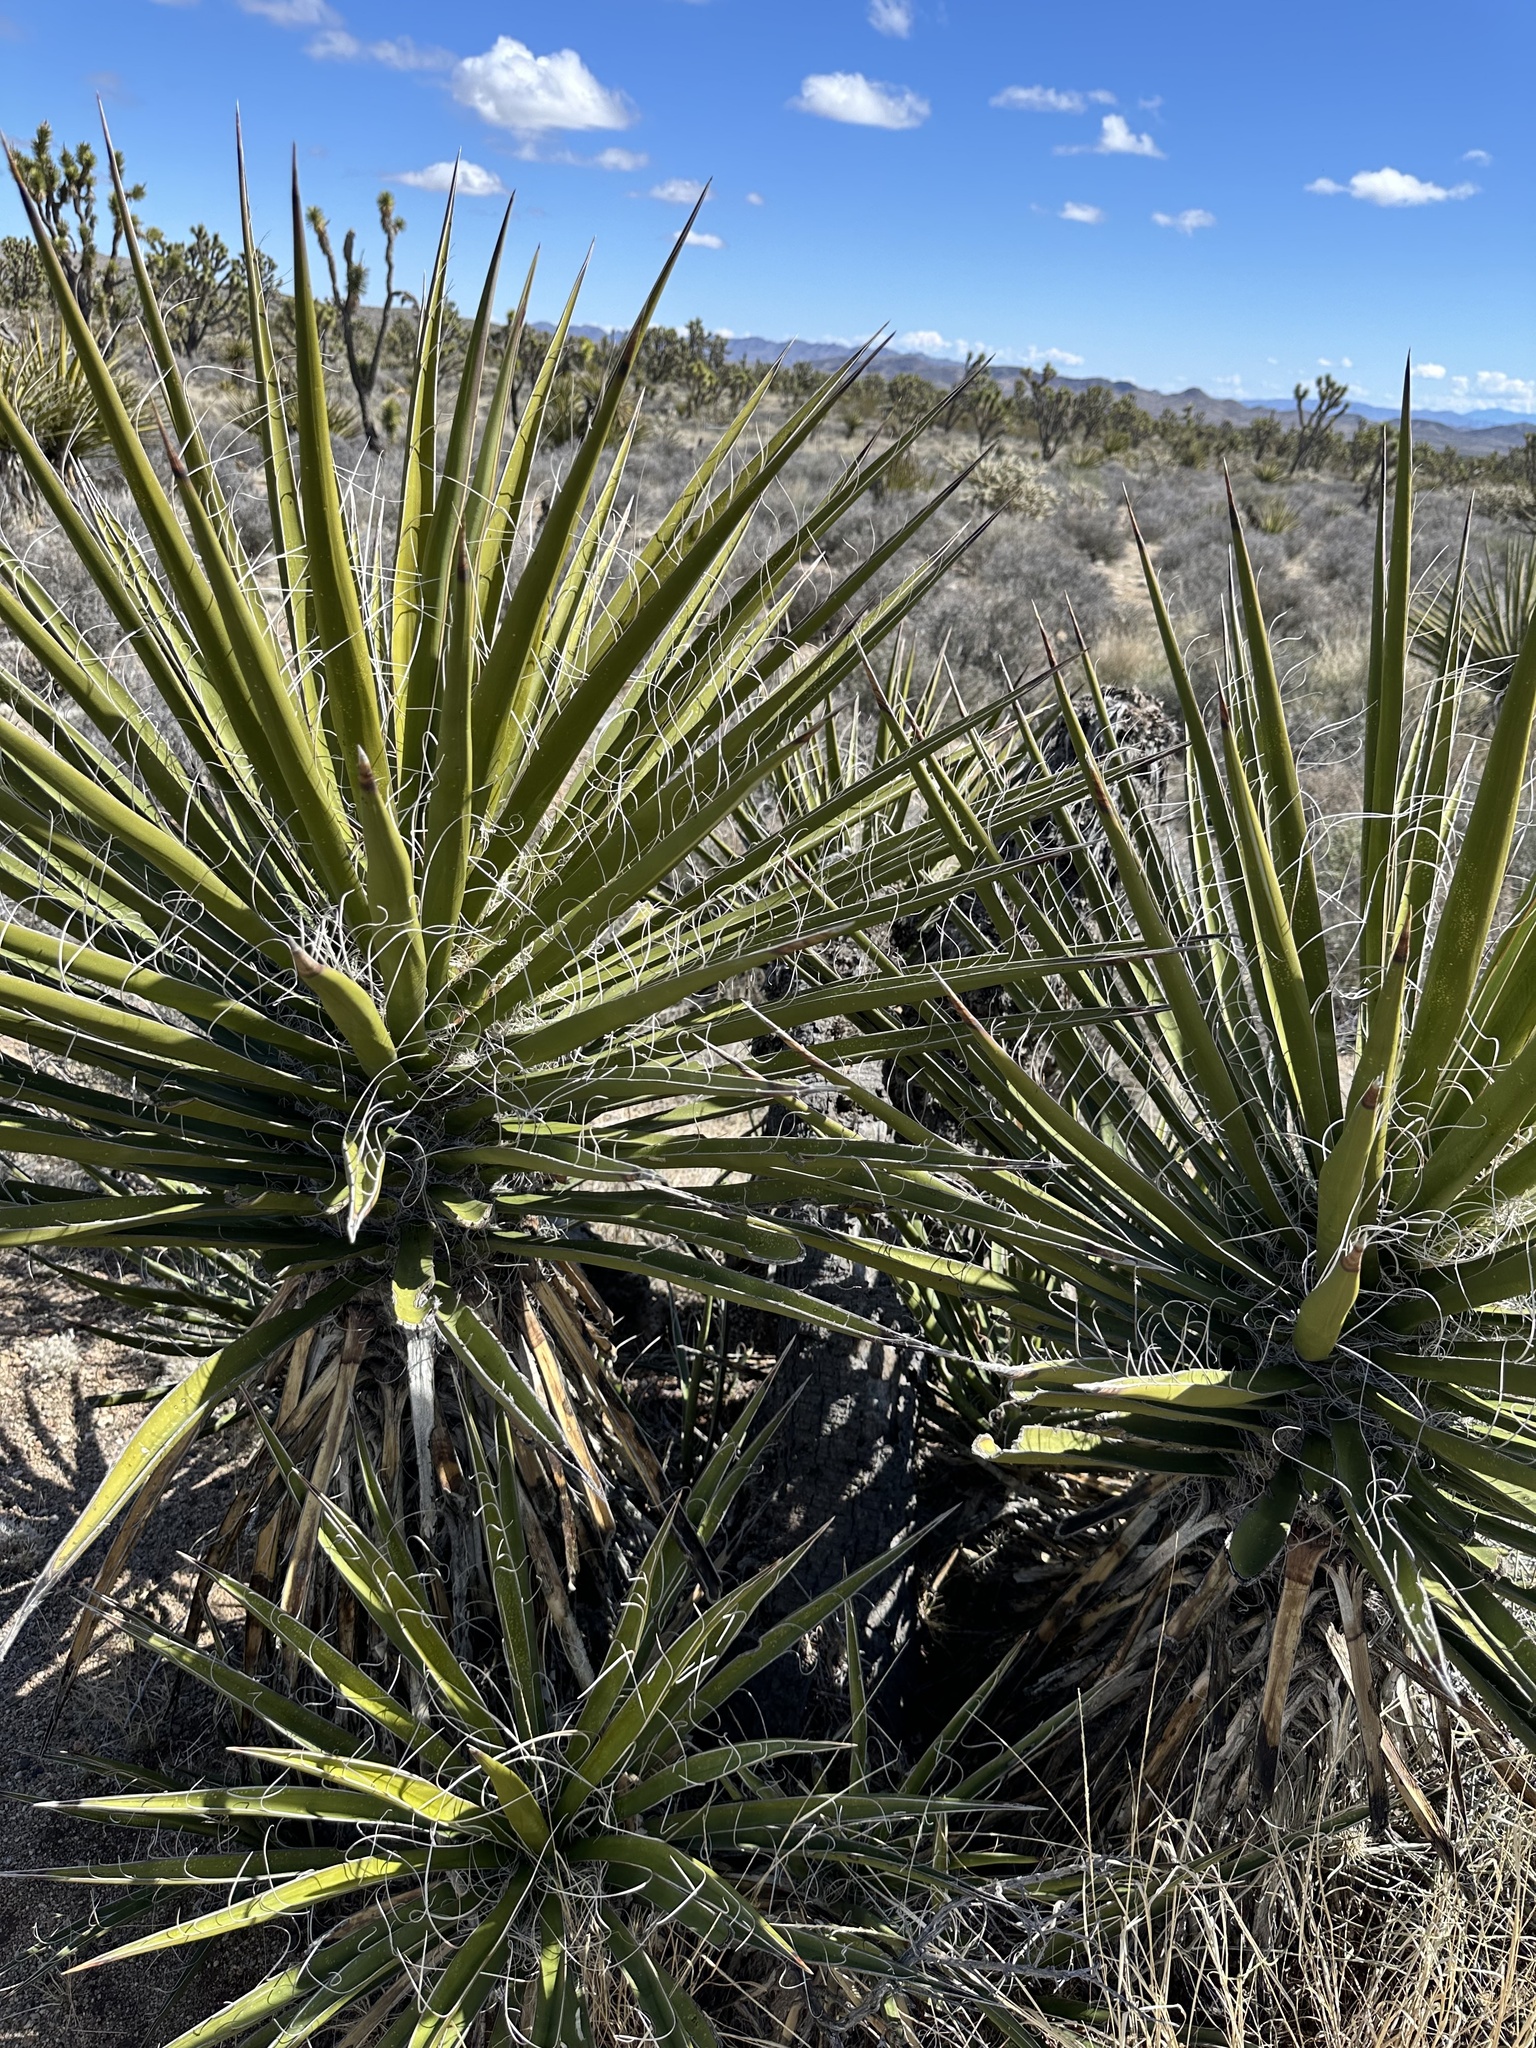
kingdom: Plantae
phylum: Tracheophyta
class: Liliopsida
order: Asparagales
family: Asparagaceae
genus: Yucca
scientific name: Yucca schidigera
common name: Mojave yucca
